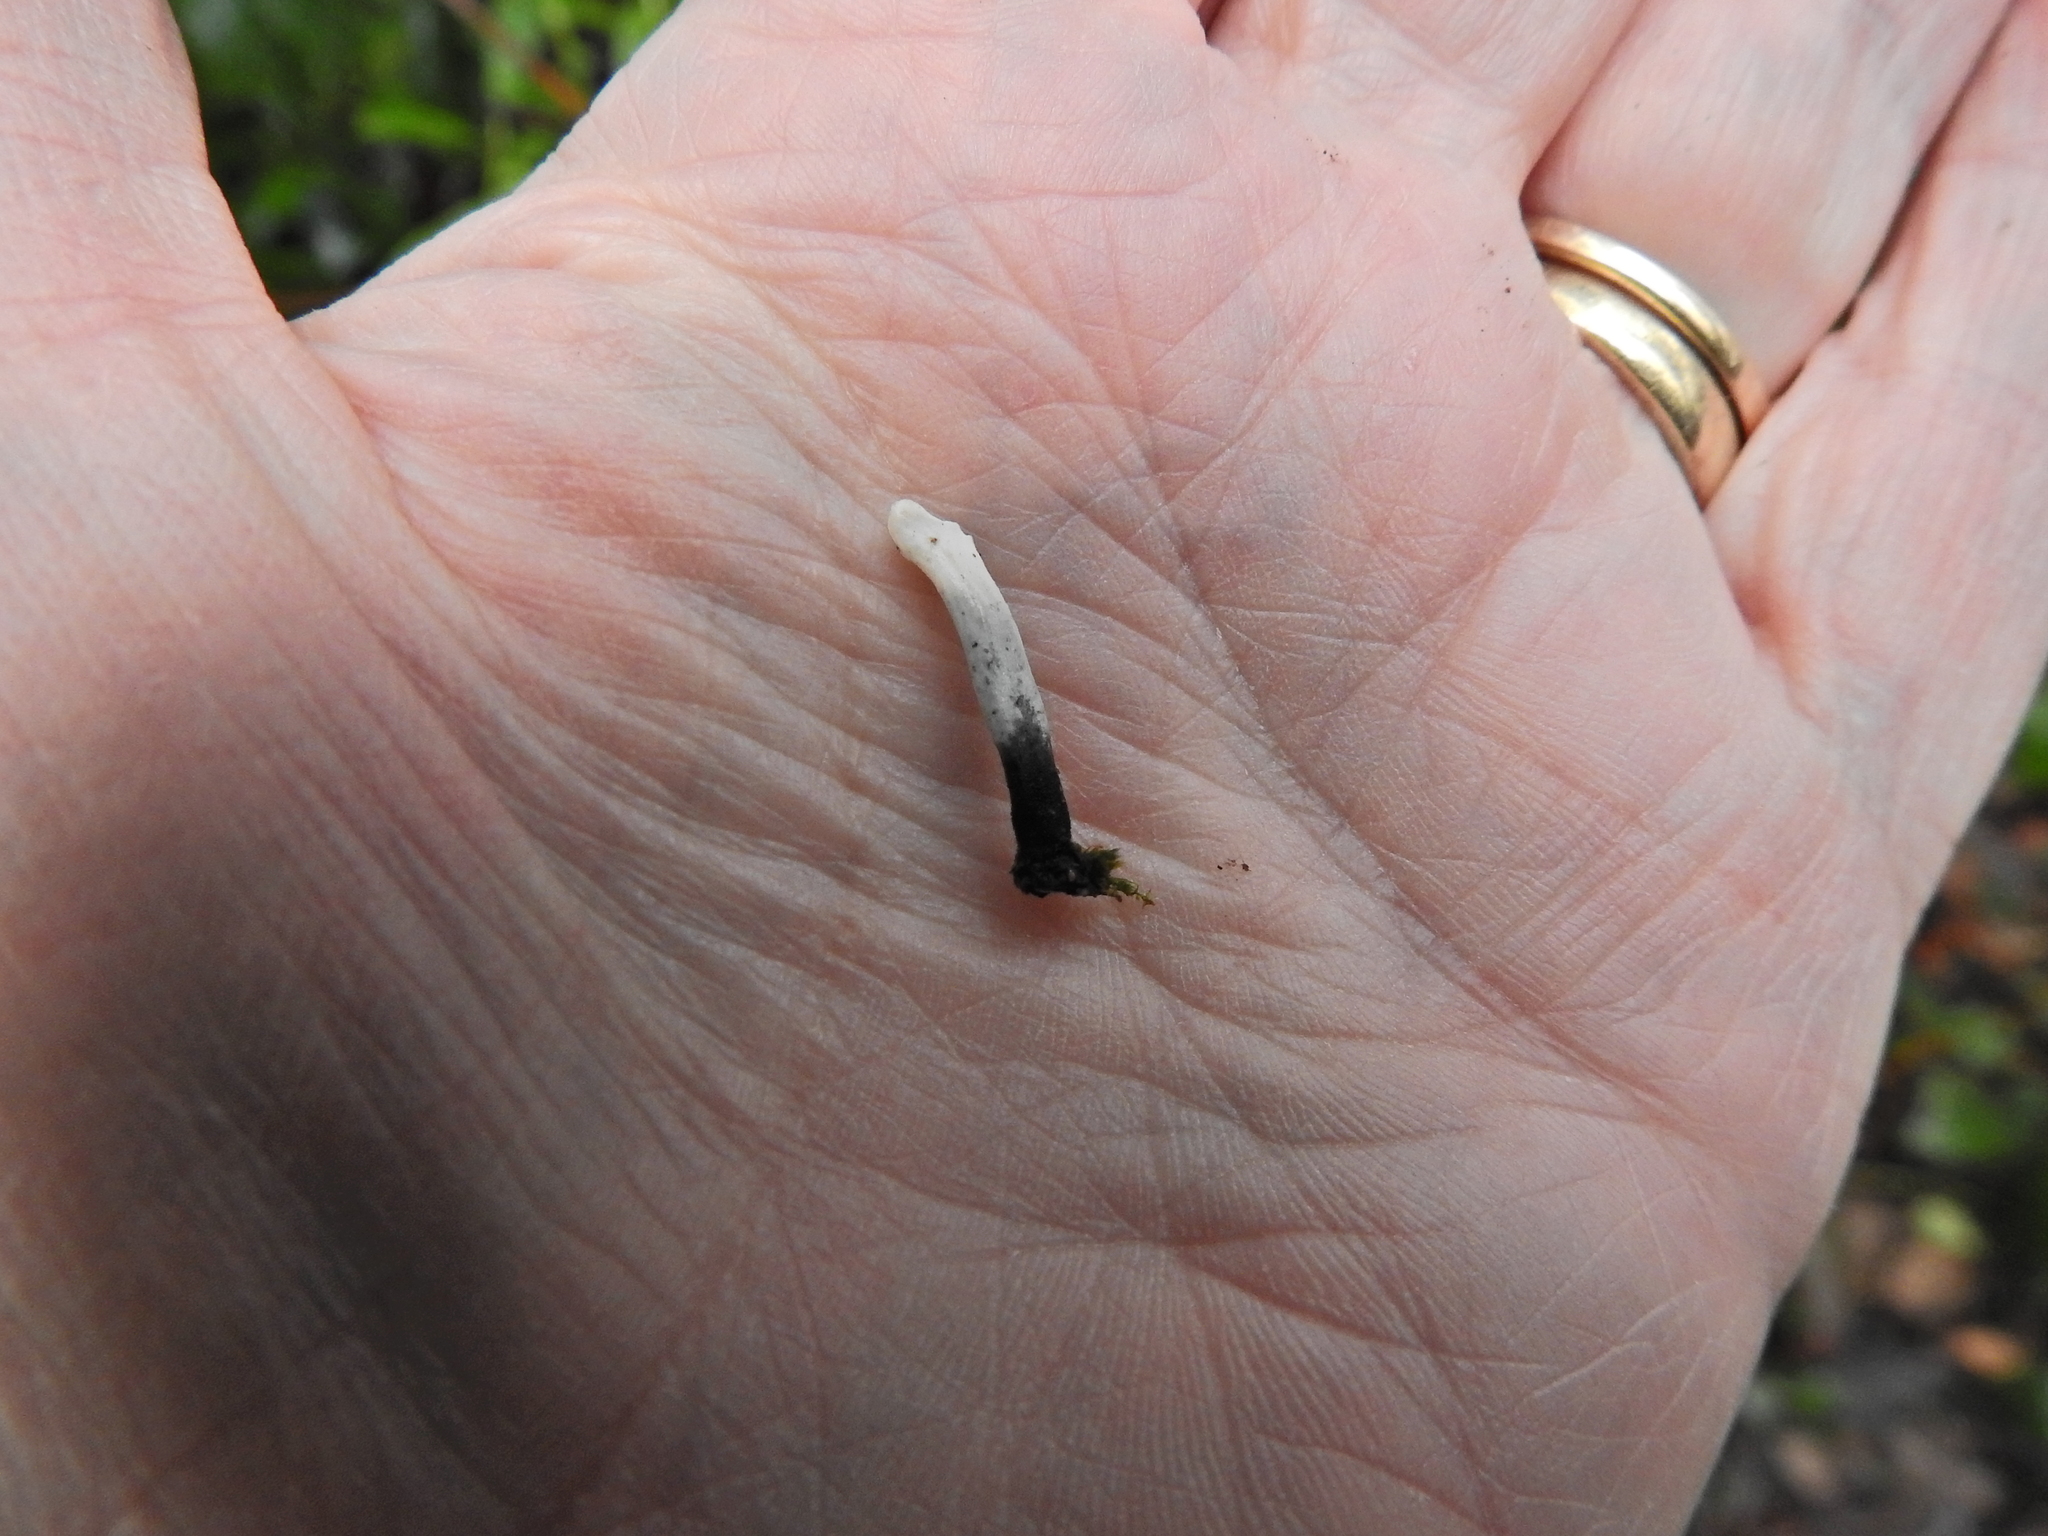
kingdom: Fungi
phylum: Ascomycota
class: Sordariomycetes
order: Xylariales
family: Xylariaceae
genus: Xylaria
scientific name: Xylaria hypoxylon
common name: Candle-snuff fungus
